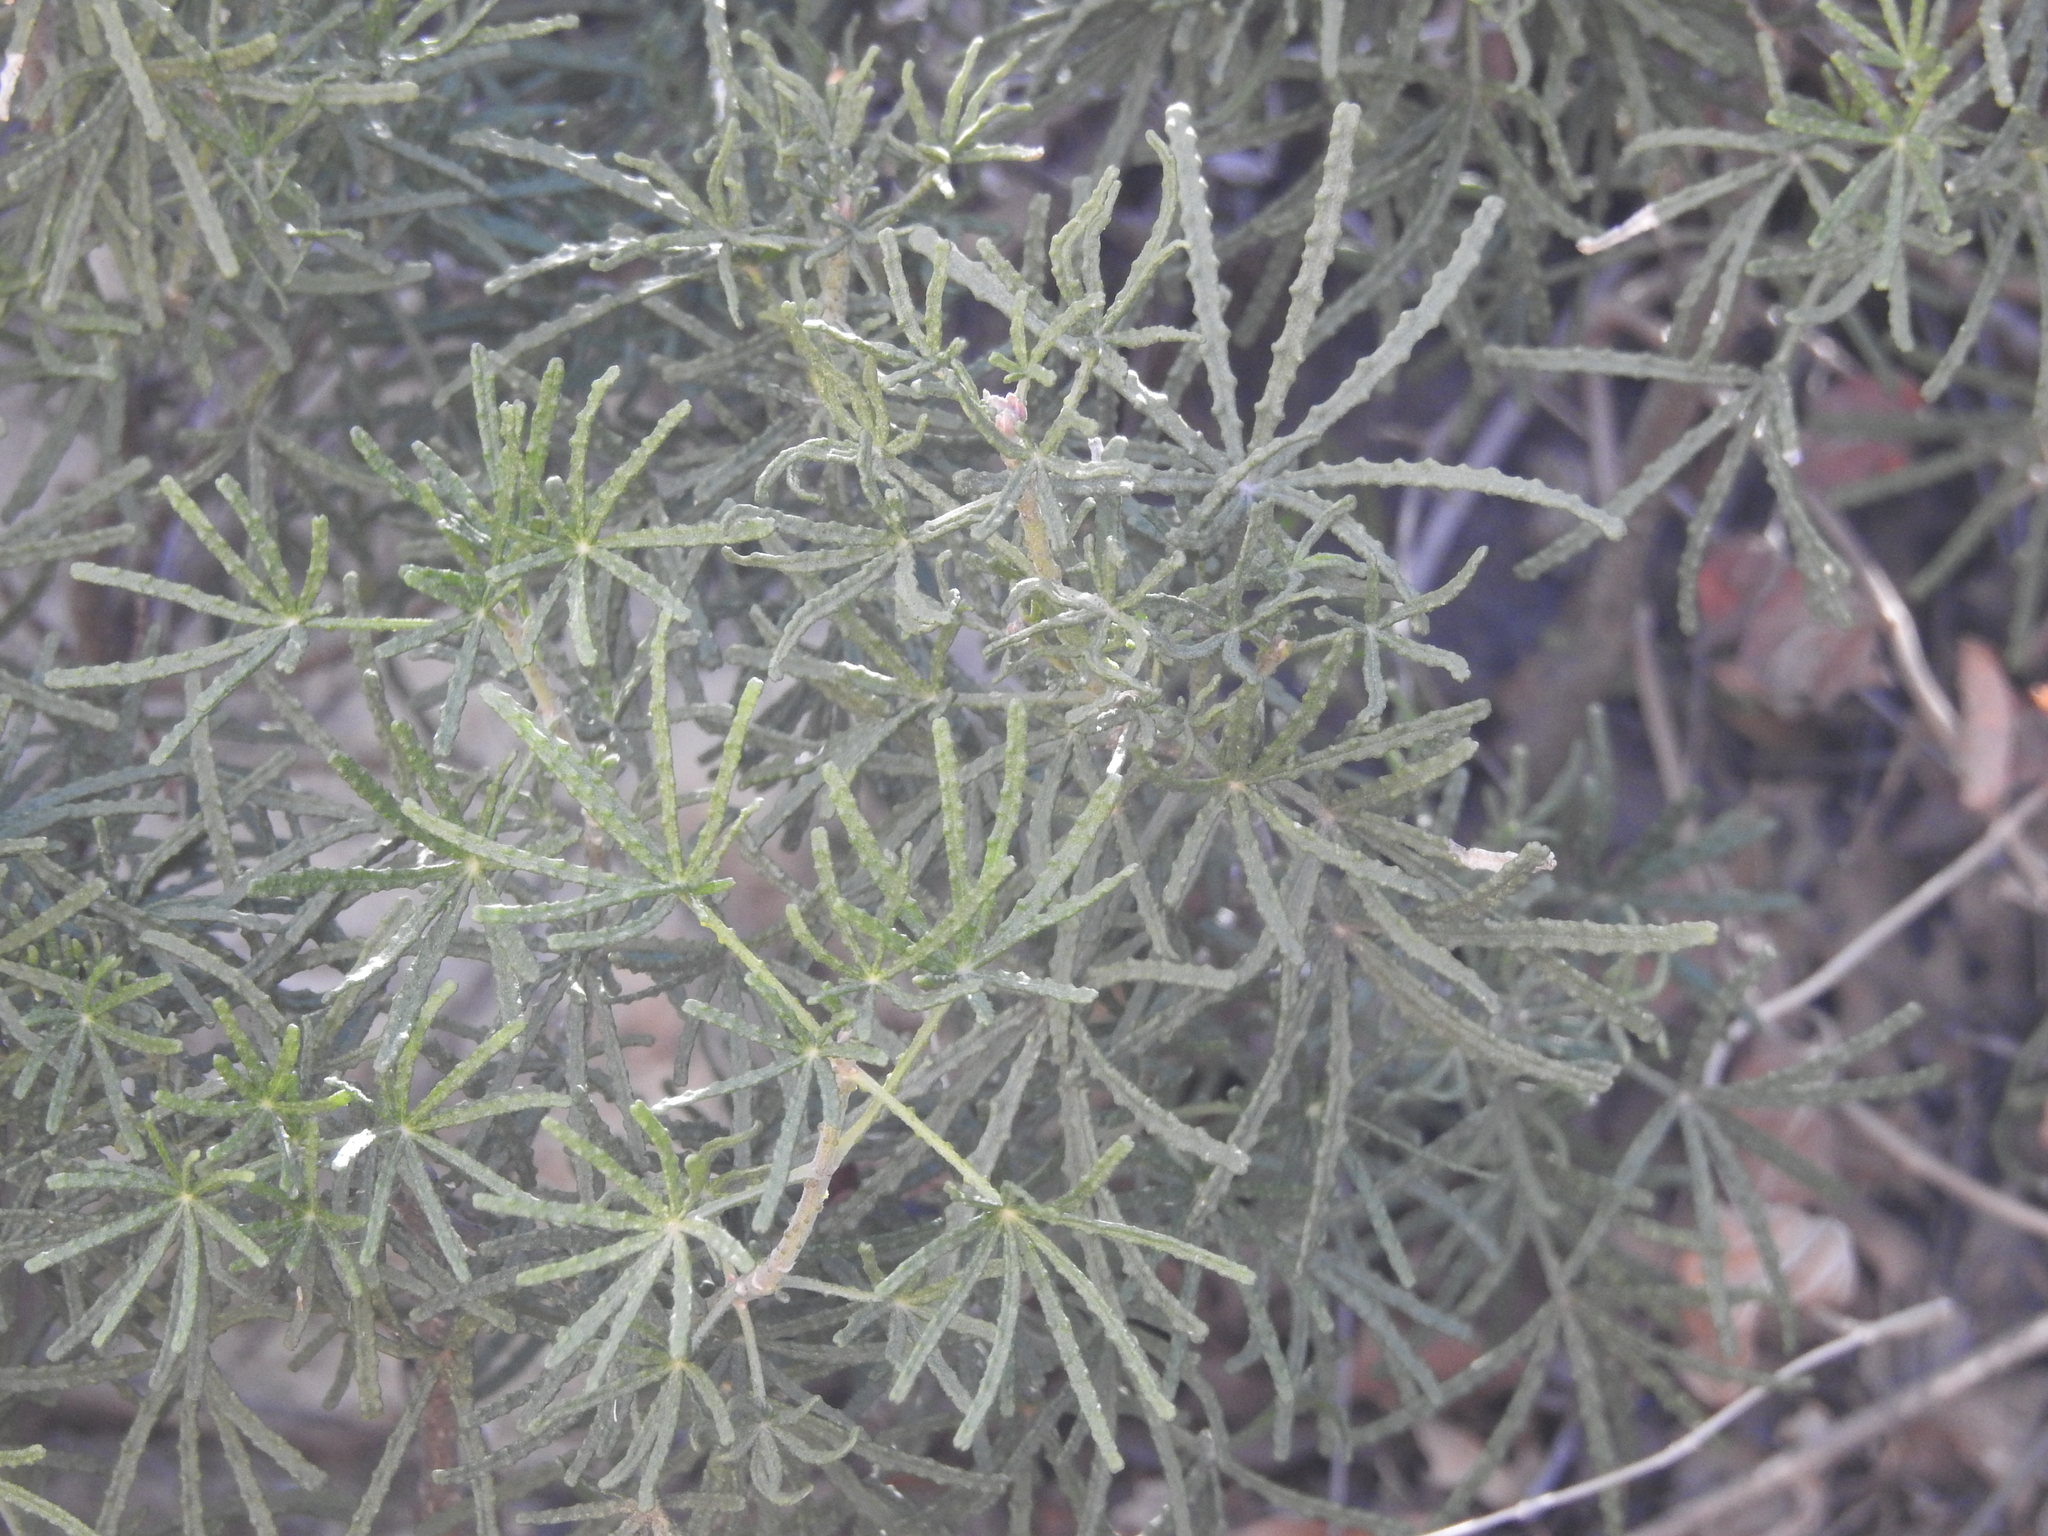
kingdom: Plantae
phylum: Tracheophyta
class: Magnoliopsida
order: Sapindales
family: Rutaceae
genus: Choisya
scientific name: Choisya dumosa
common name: Mexican-orange
